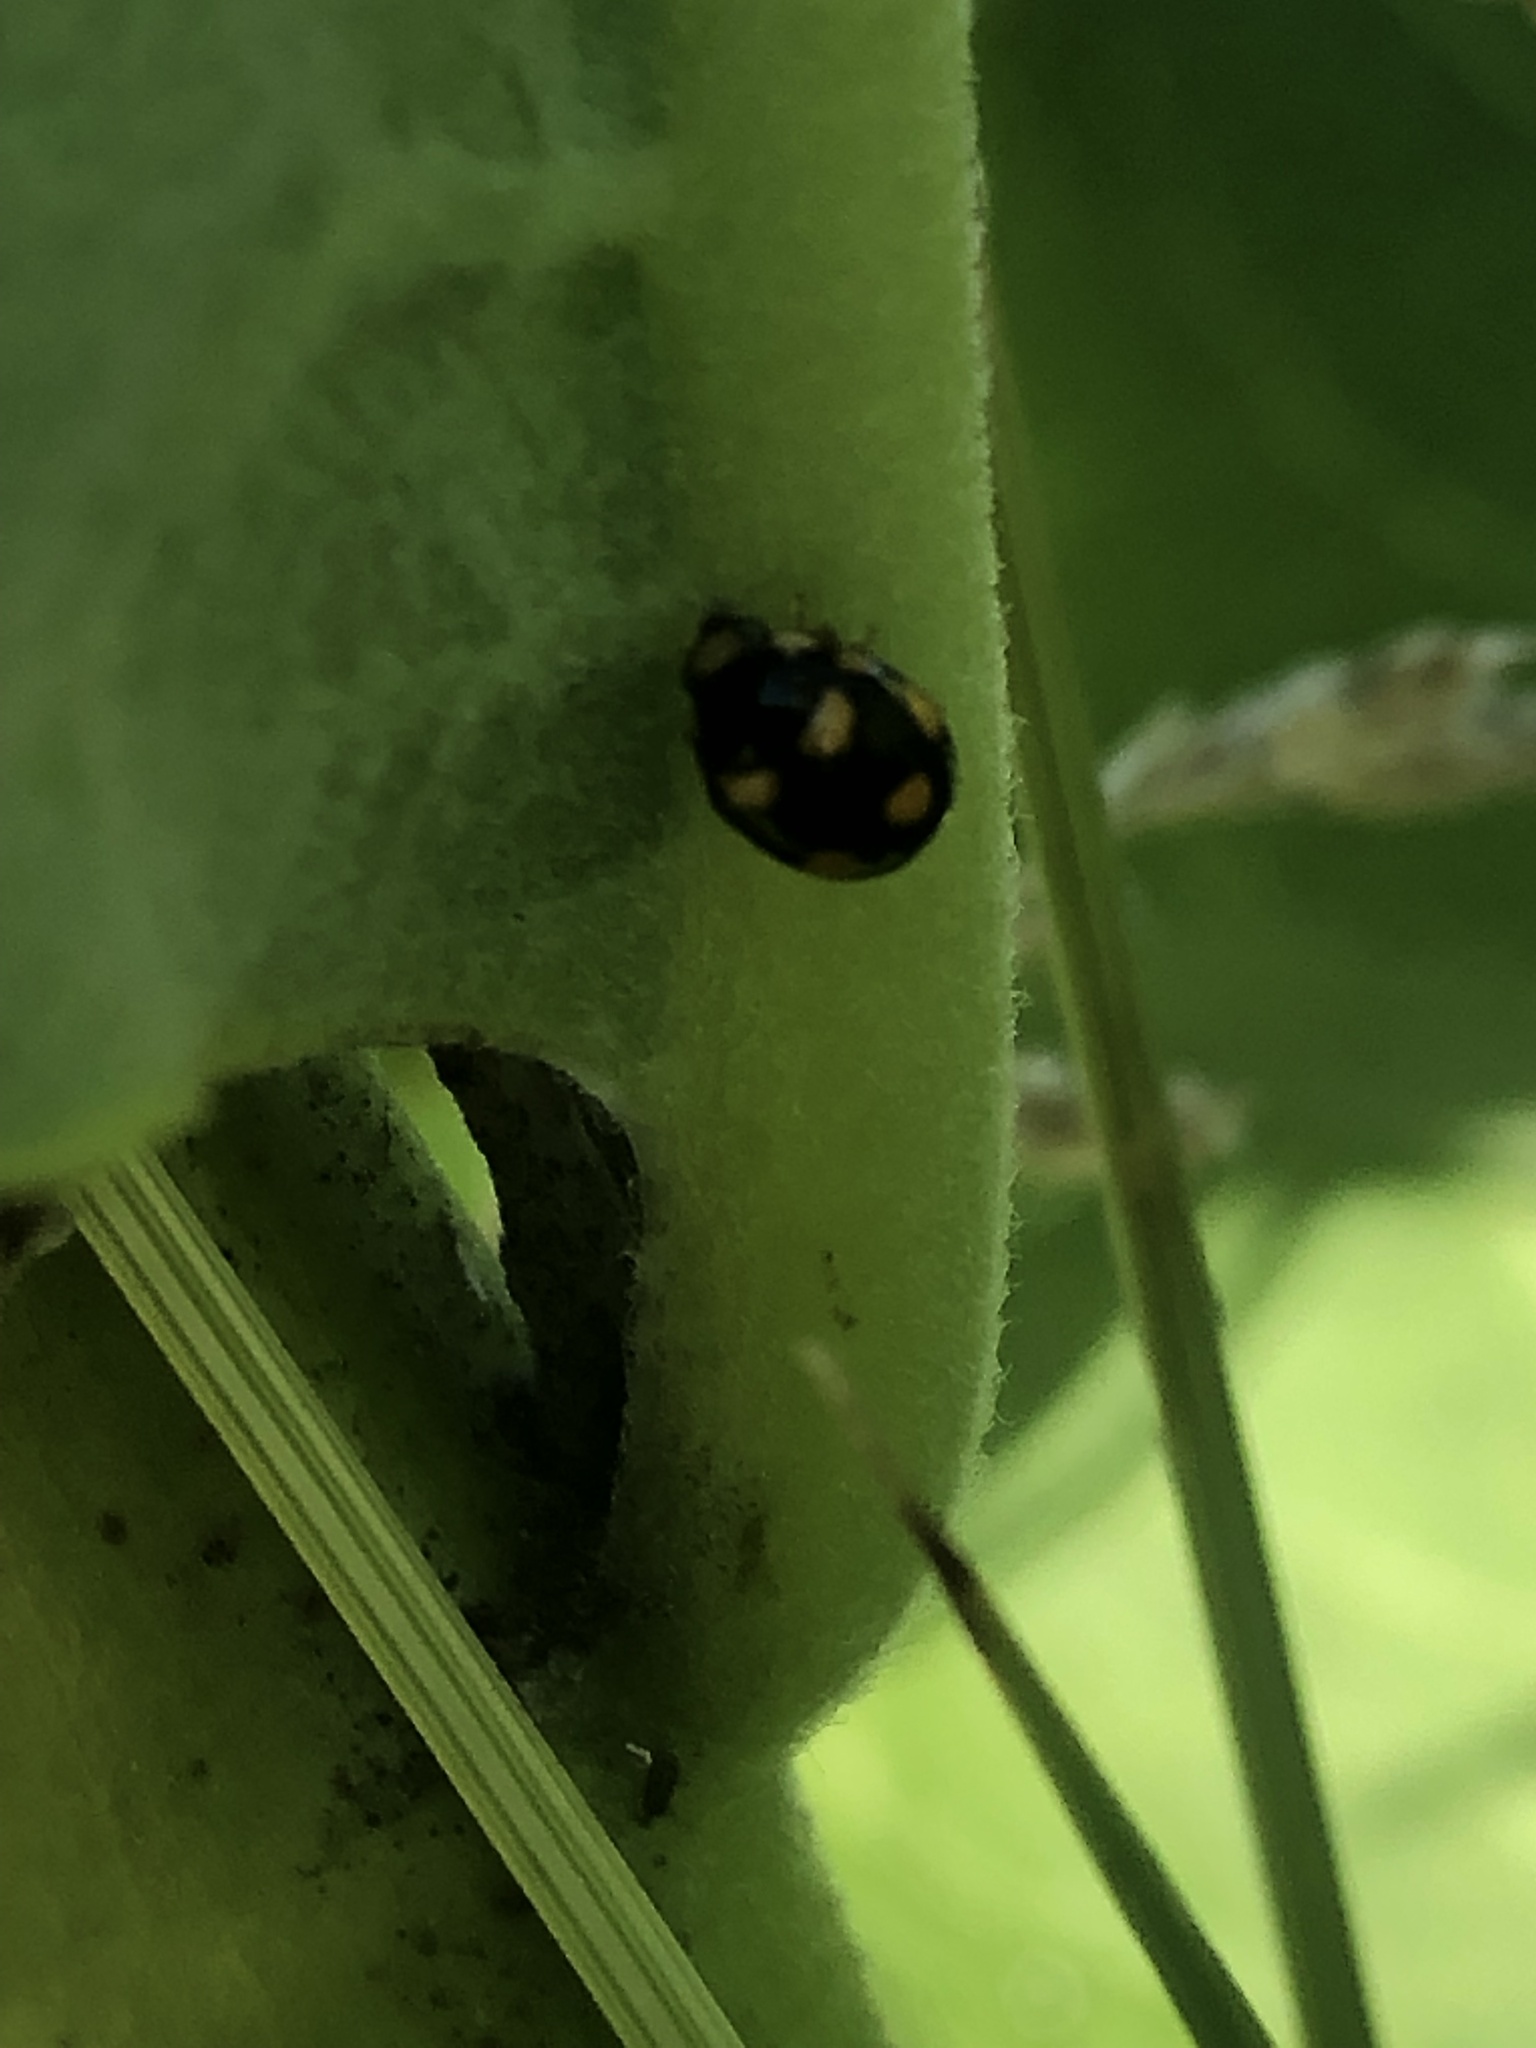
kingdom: Animalia
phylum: Arthropoda
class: Insecta
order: Coleoptera
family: Coccinellidae
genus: Brachiacantha
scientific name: Brachiacantha ursina
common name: Ursine spurleg lady beetle
